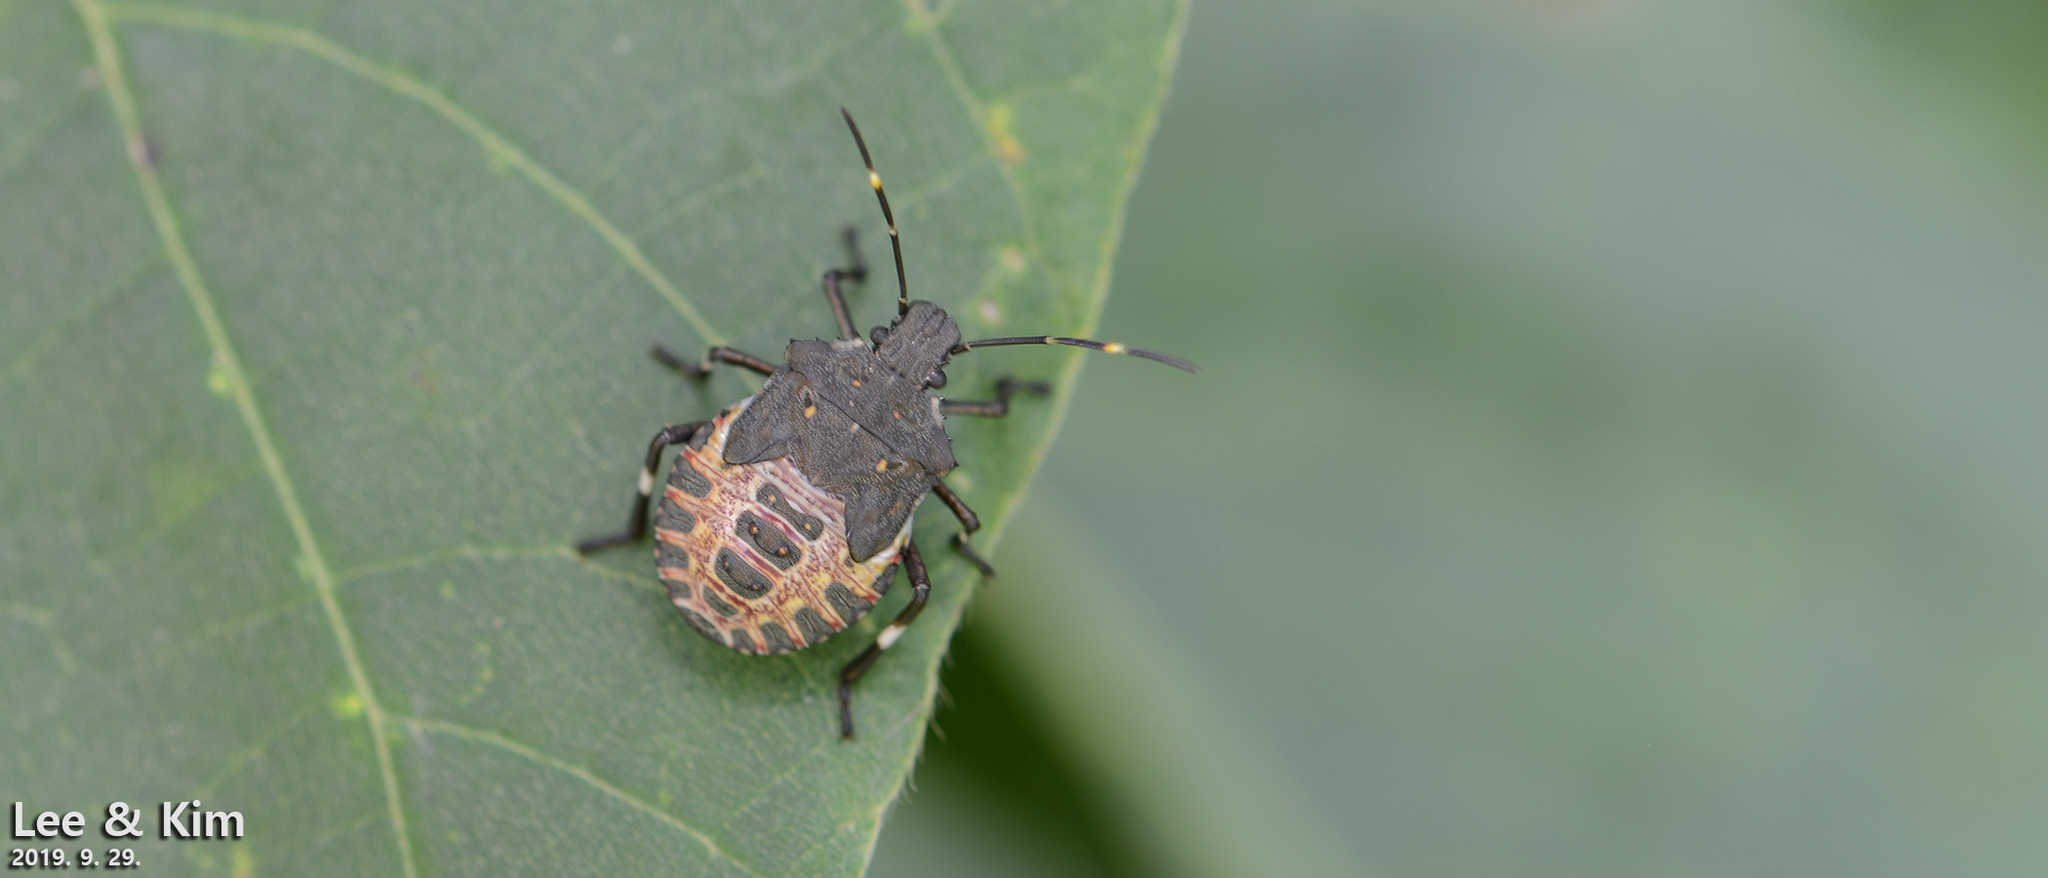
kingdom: Animalia
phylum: Arthropoda
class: Insecta
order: Hemiptera
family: Pentatomidae
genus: Halyomorpha
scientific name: Halyomorpha halys
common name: Brown marmorated stink bug
